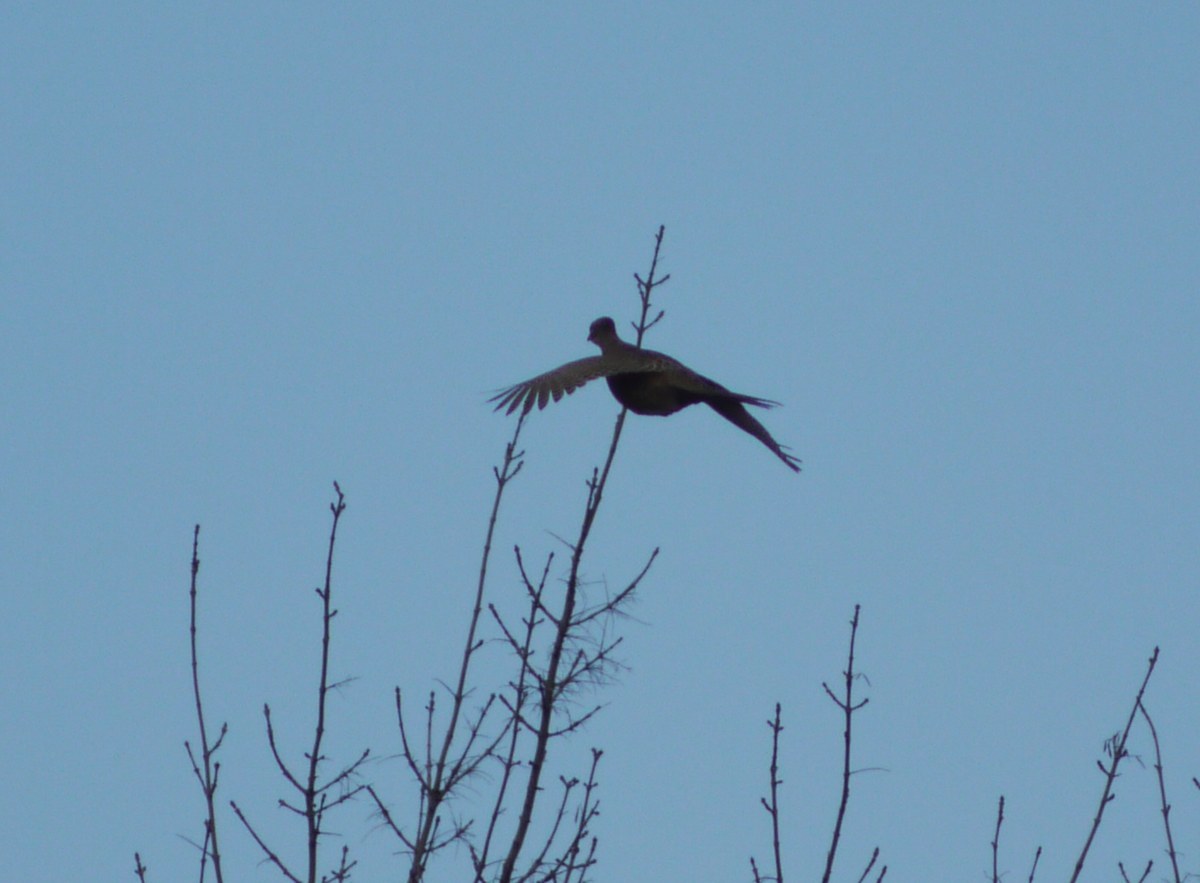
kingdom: Animalia
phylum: Chordata
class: Aves
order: Galliformes
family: Phasianidae
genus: Phasianus
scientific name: Phasianus colchicus
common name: Common pheasant
